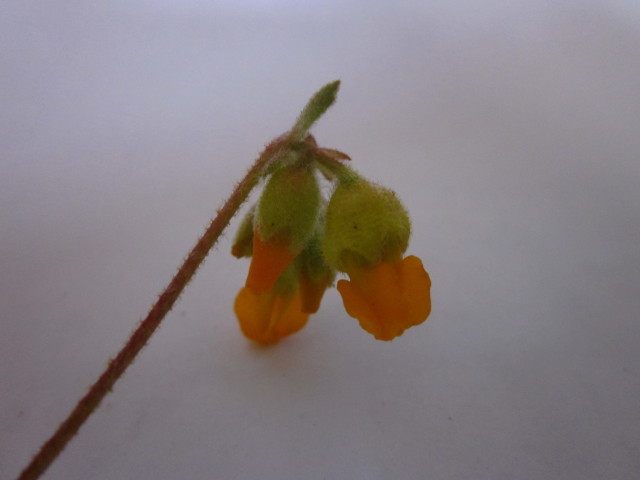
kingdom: Plantae
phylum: Tracheophyta
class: Magnoliopsida
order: Malvales
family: Malvaceae
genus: Hermannia
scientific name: Hermannia althaeifolia
